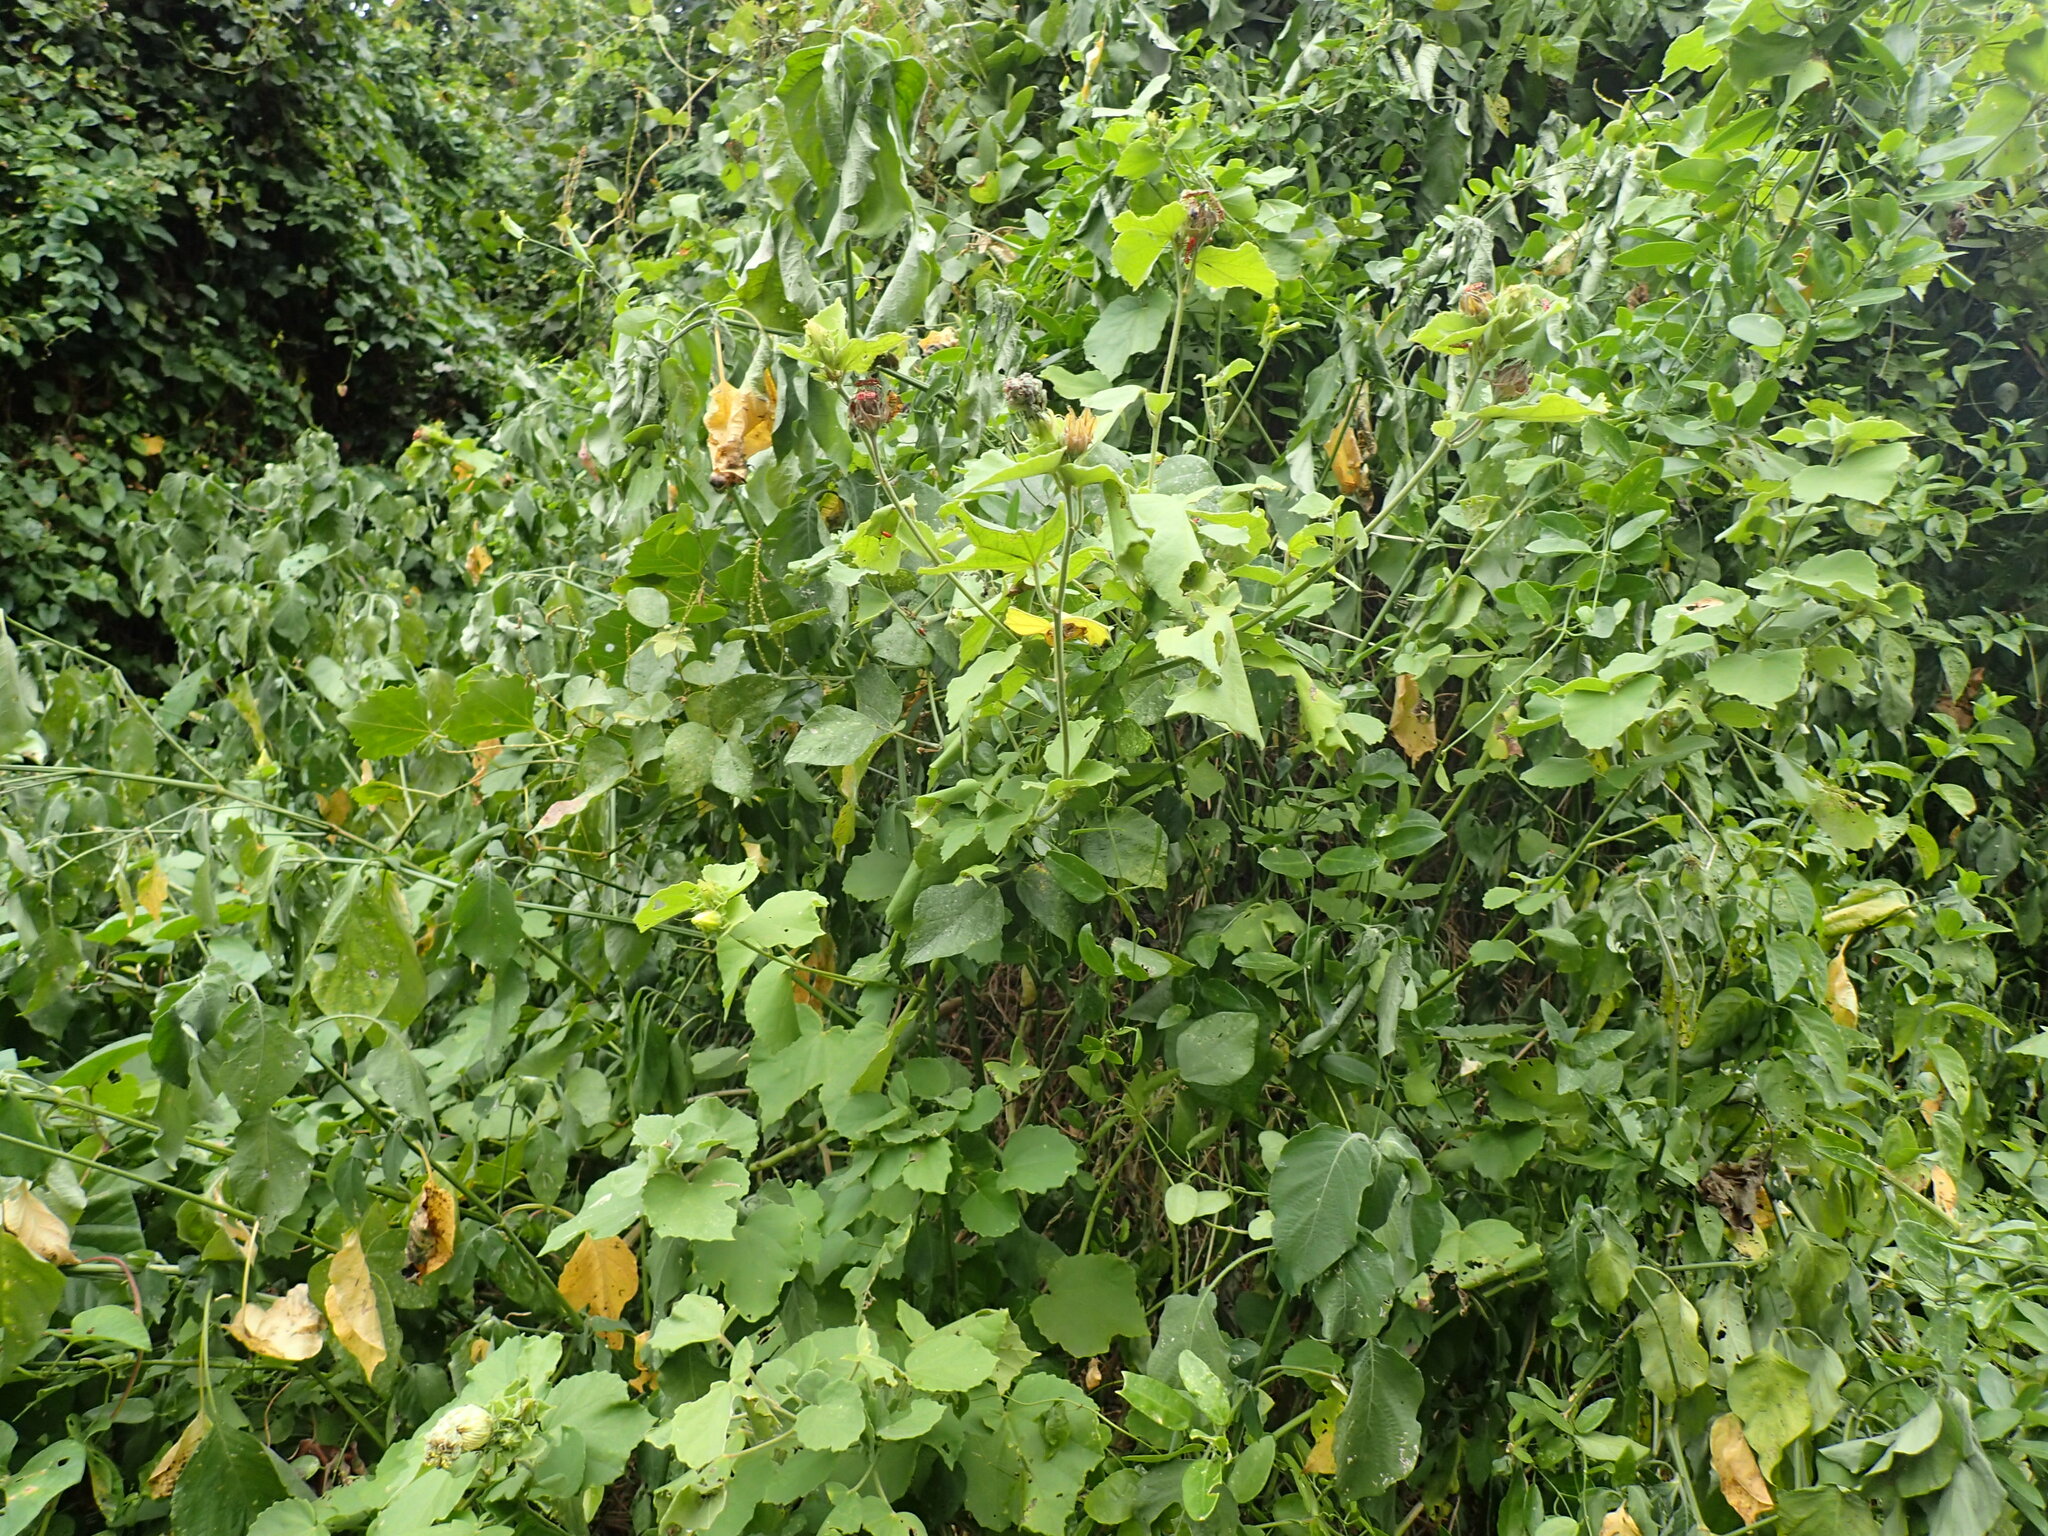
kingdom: Plantae
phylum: Tracheophyta
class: Magnoliopsida
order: Malvales
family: Malvaceae
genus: Hibiscus
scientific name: Hibiscus calyphyllus
